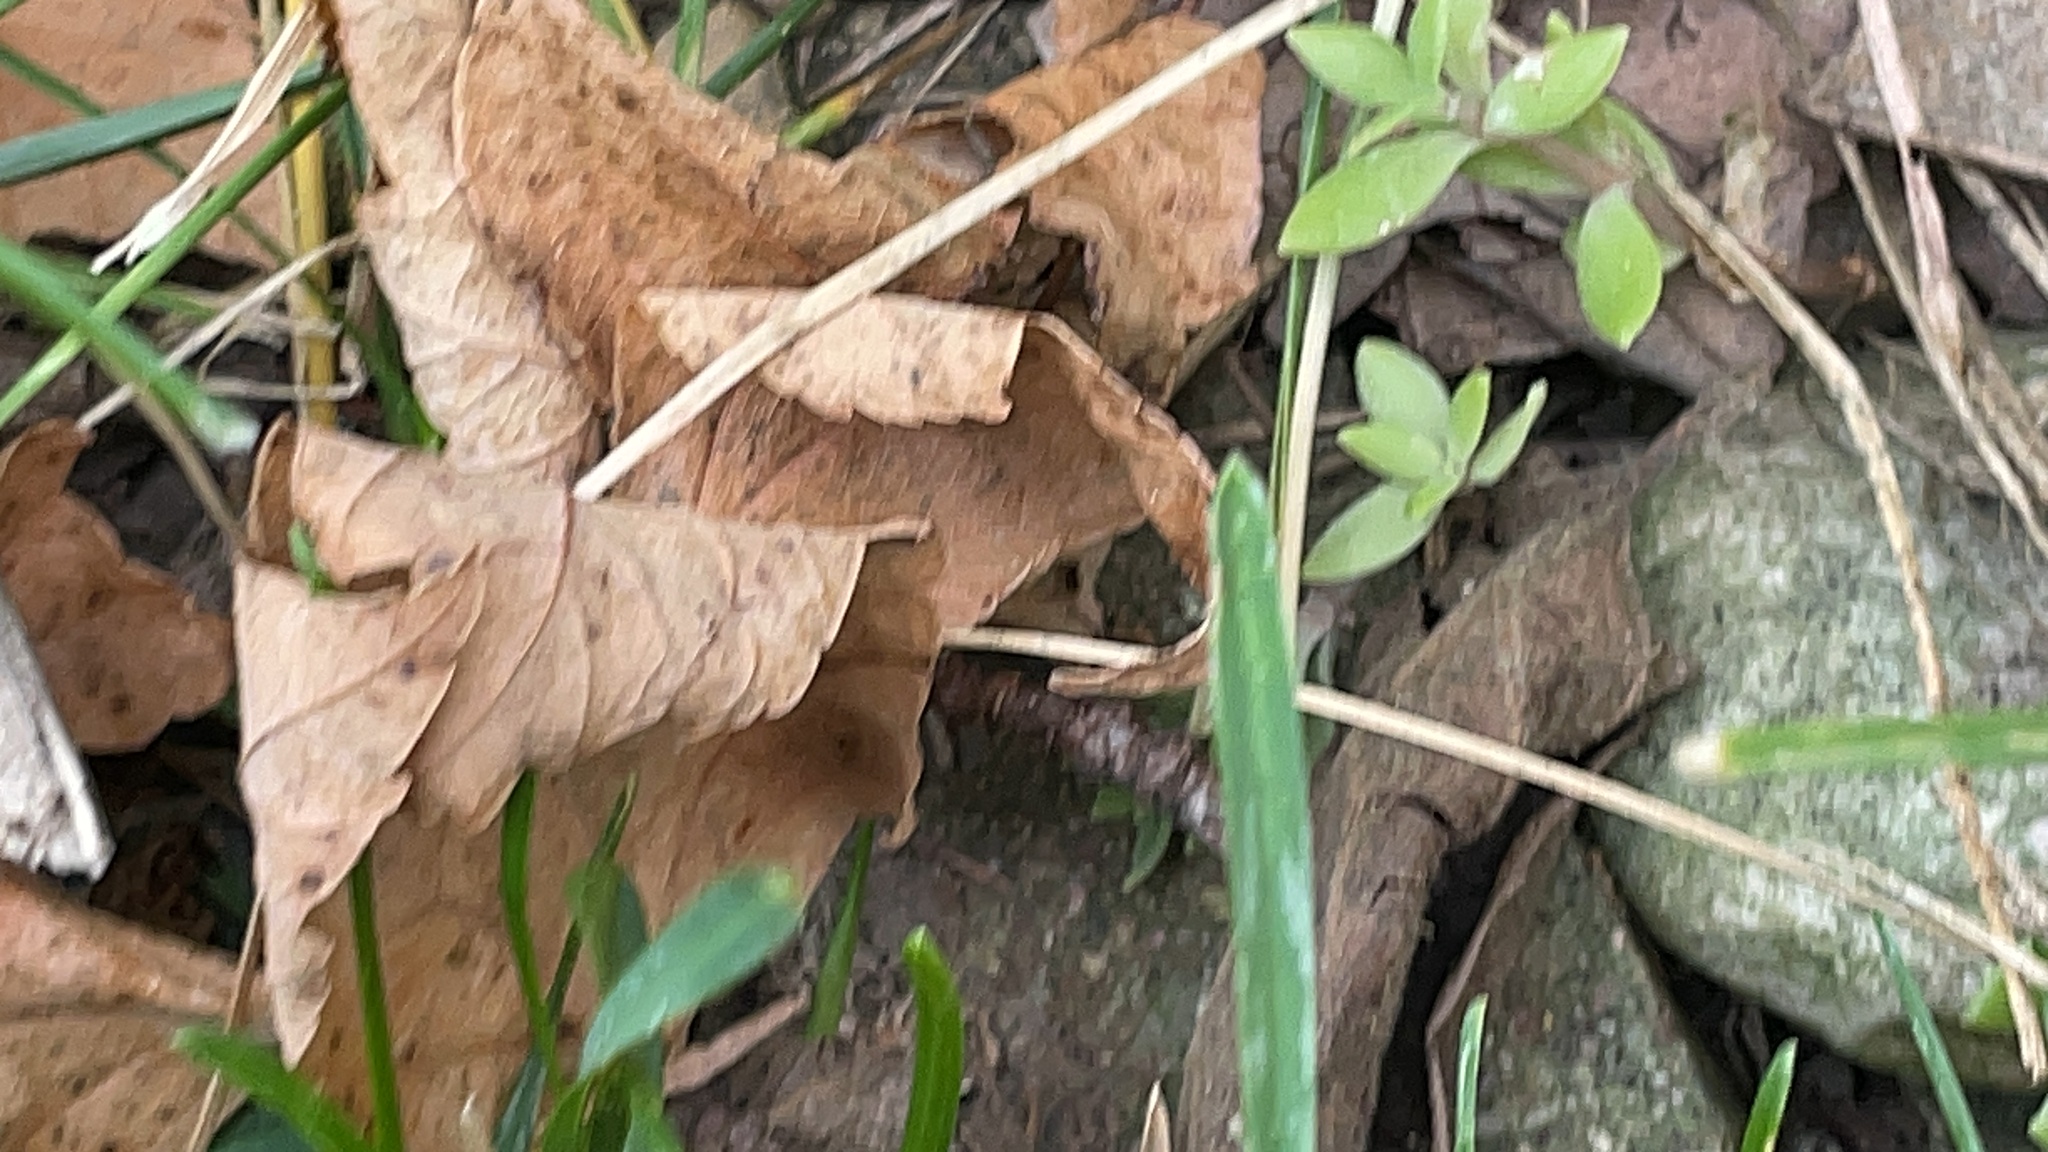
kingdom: Plantae
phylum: Tracheophyta
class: Magnoliopsida
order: Saxifragales
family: Crassulaceae
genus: Sedum
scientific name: Sedum sarmentosum
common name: Stringy stonecrop
